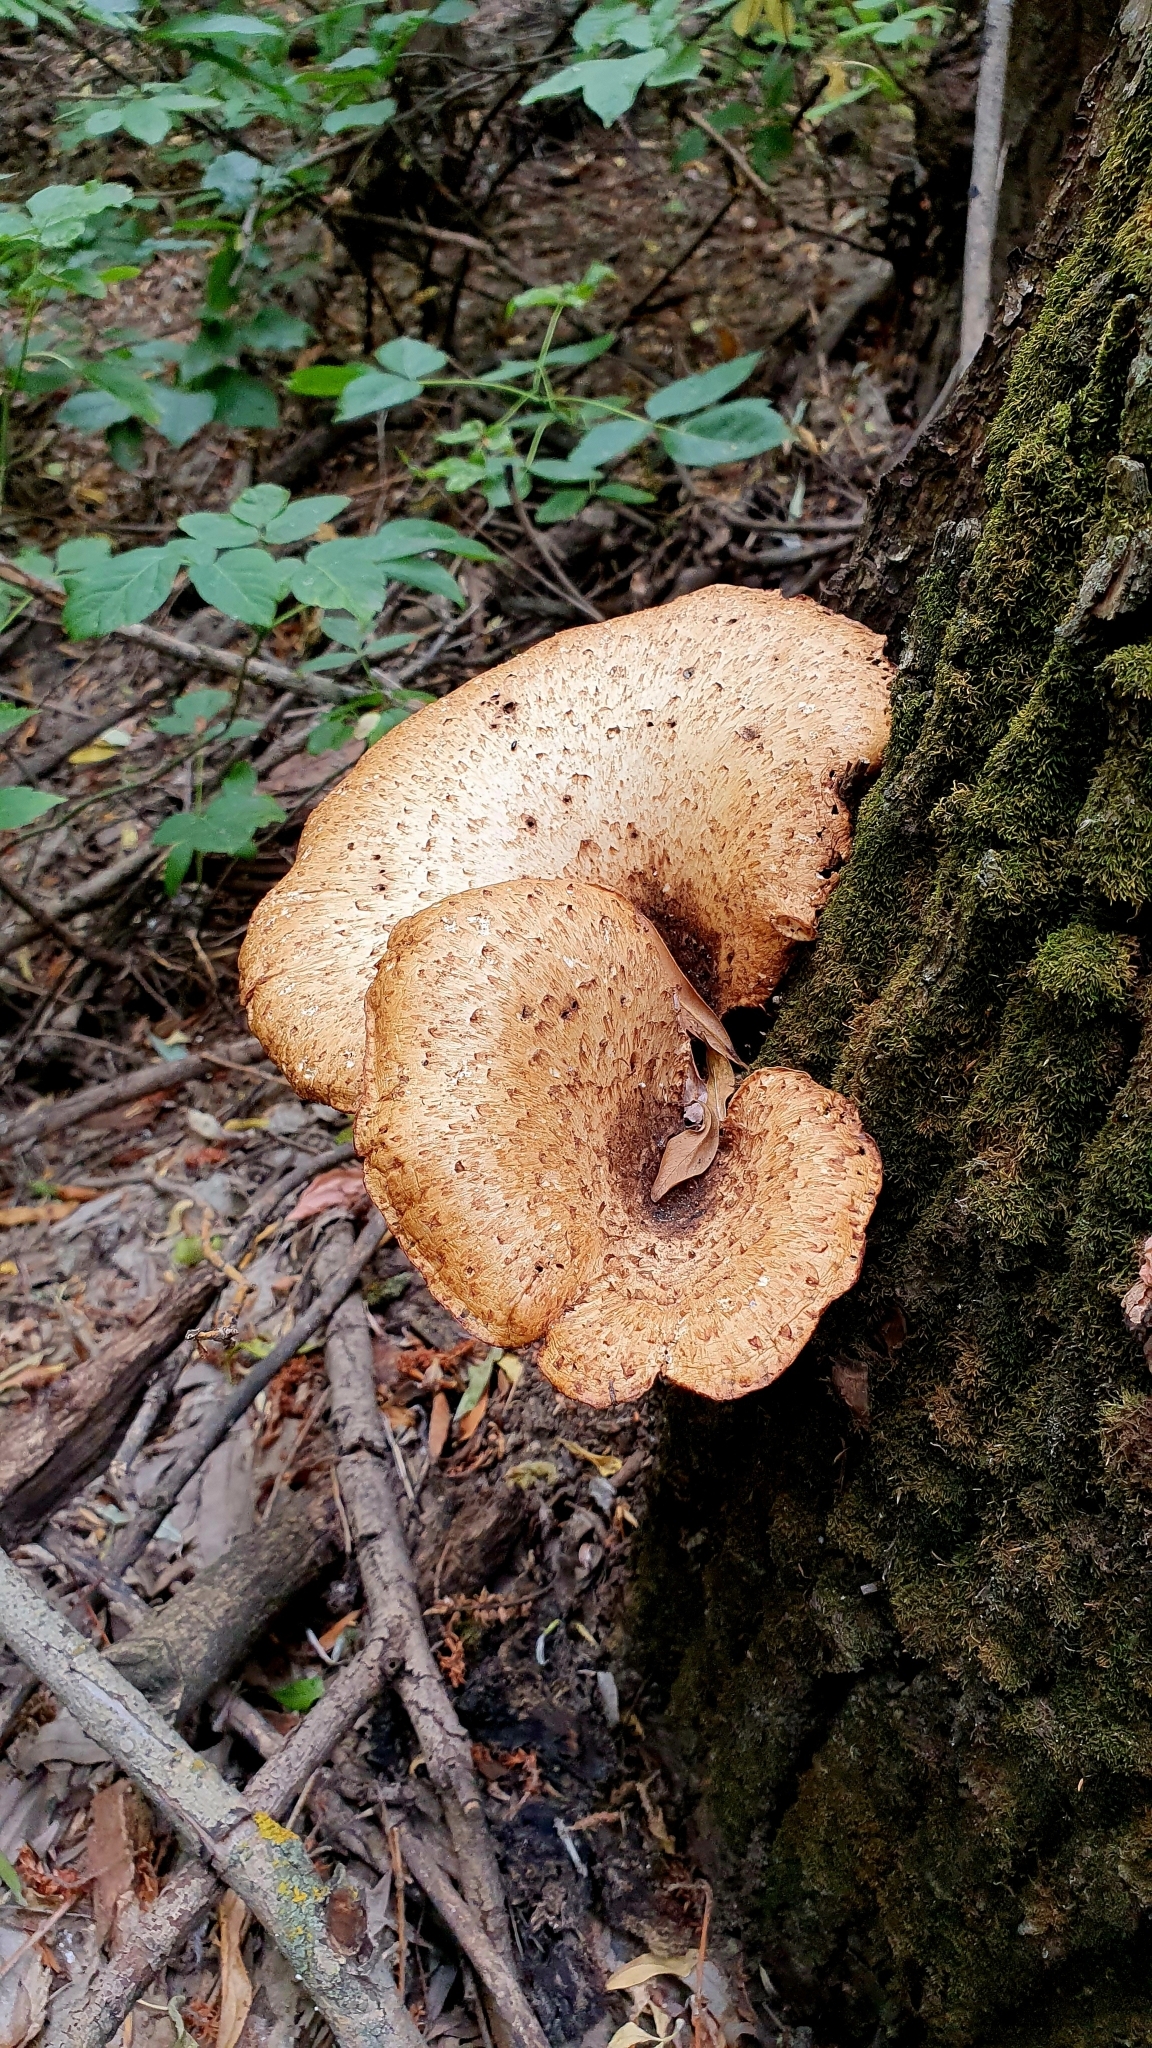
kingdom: Fungi
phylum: Basidiomycota
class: Agaricomycetes
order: Polyporales
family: Polyporaceae
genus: Cerioporus
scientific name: Cerioporus squamosus
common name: Dryad's saddle
